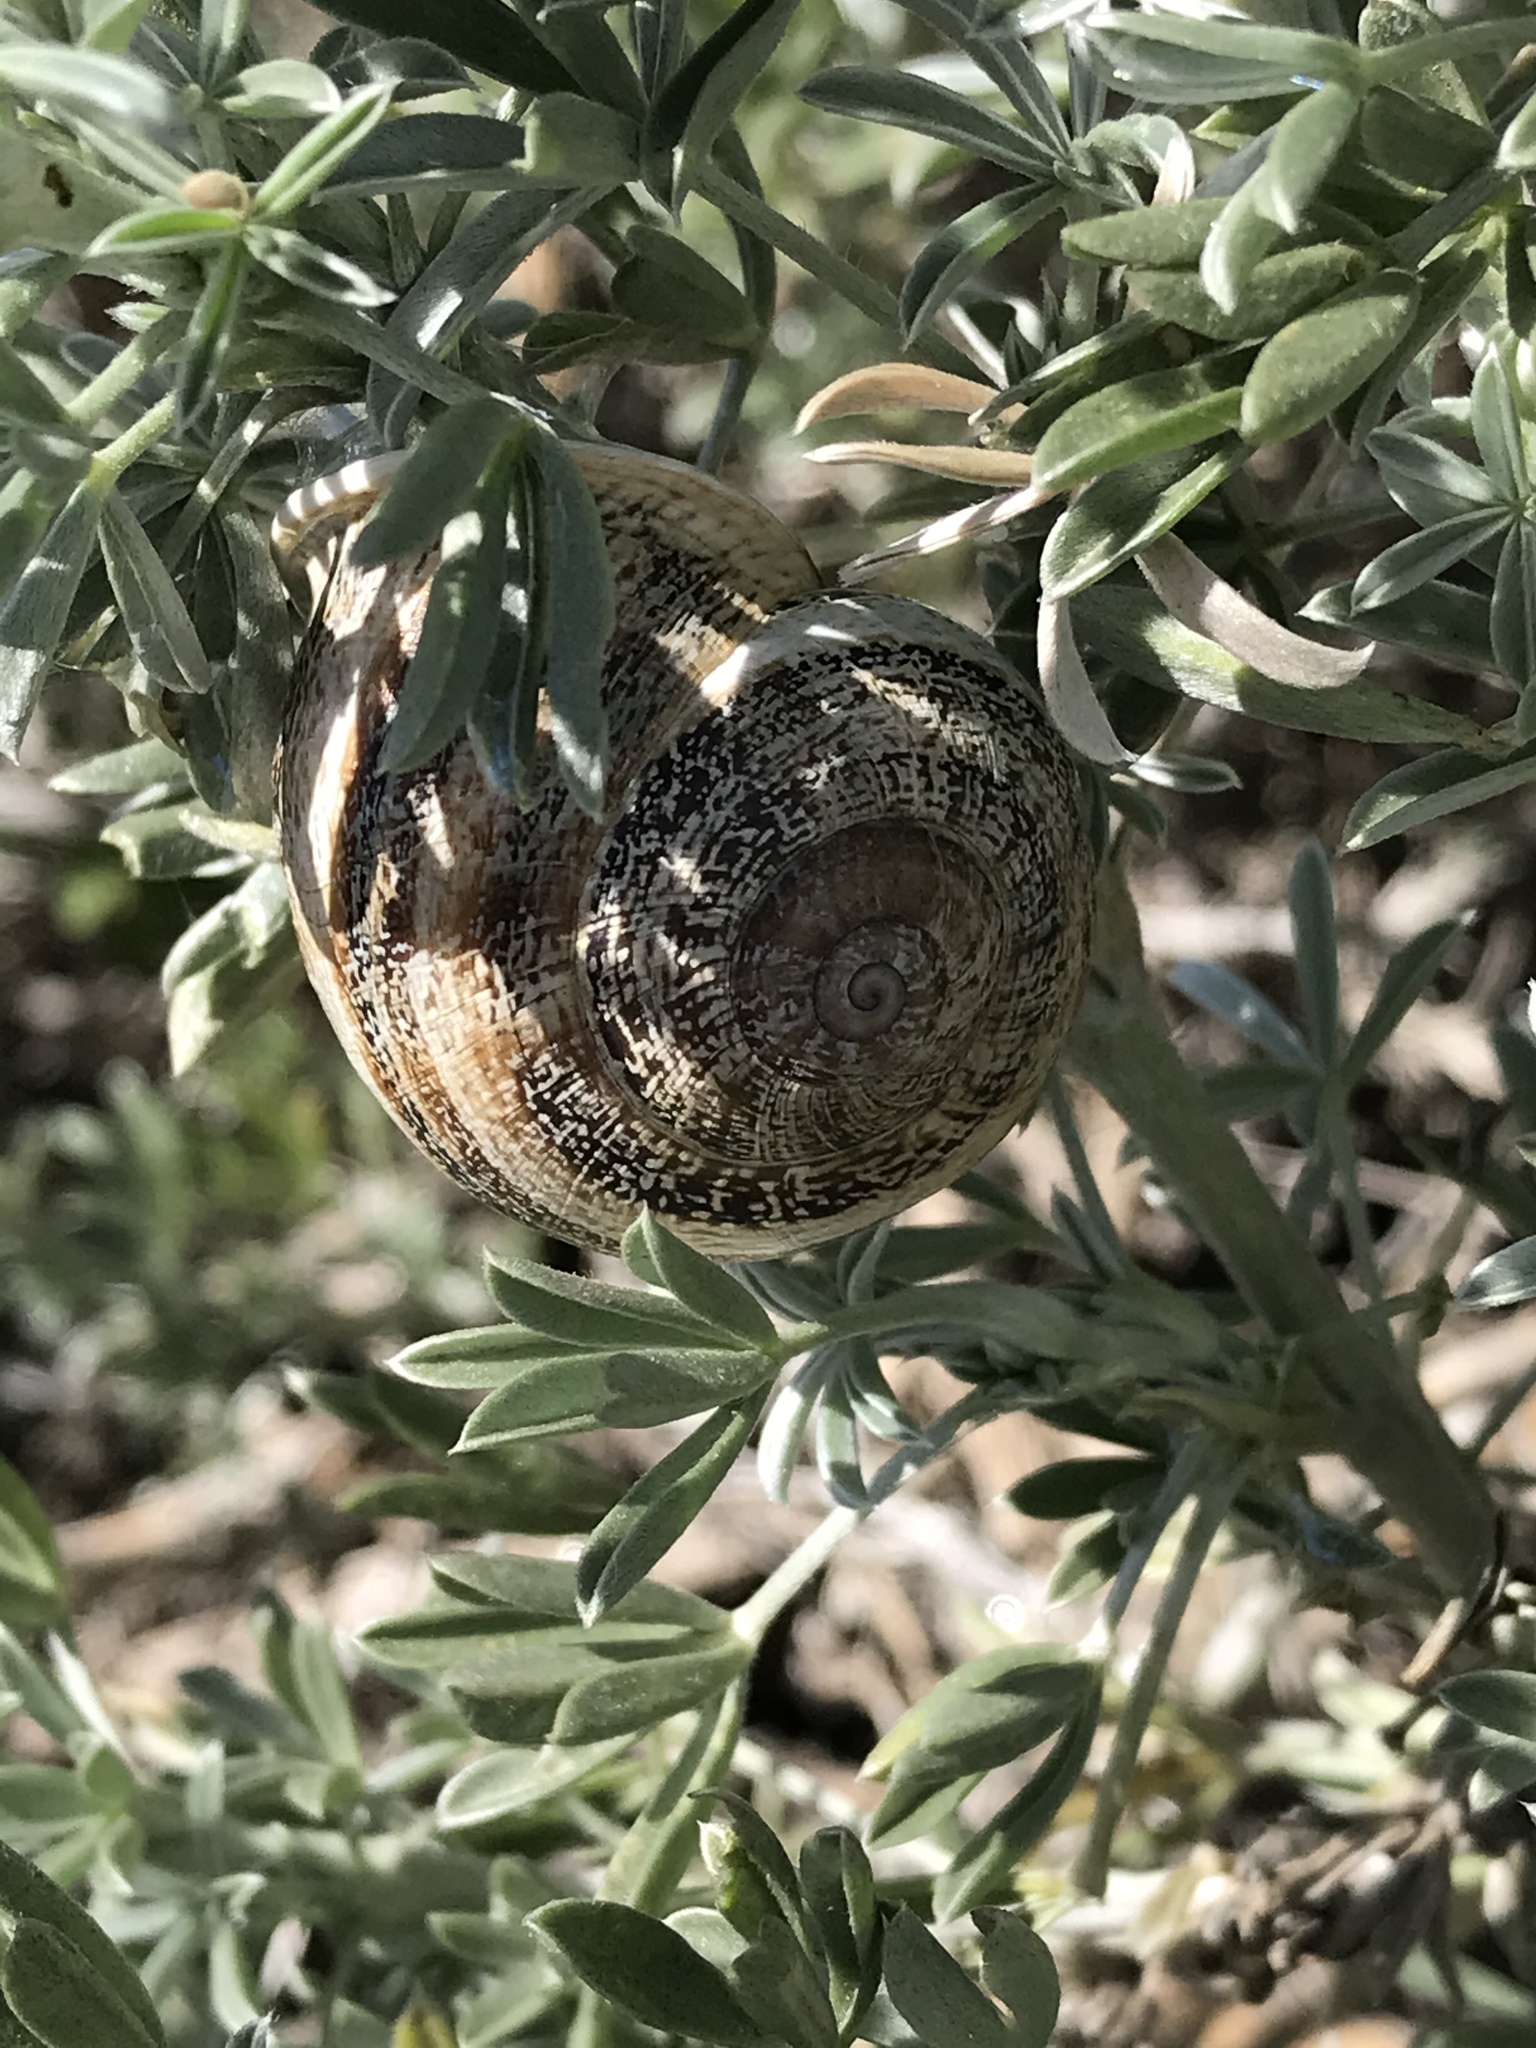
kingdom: Animalia
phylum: Mollusca
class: Gastropoda
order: Stylommatophora
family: Helicidae
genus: Otala
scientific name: Otala lactea
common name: Milk snail
